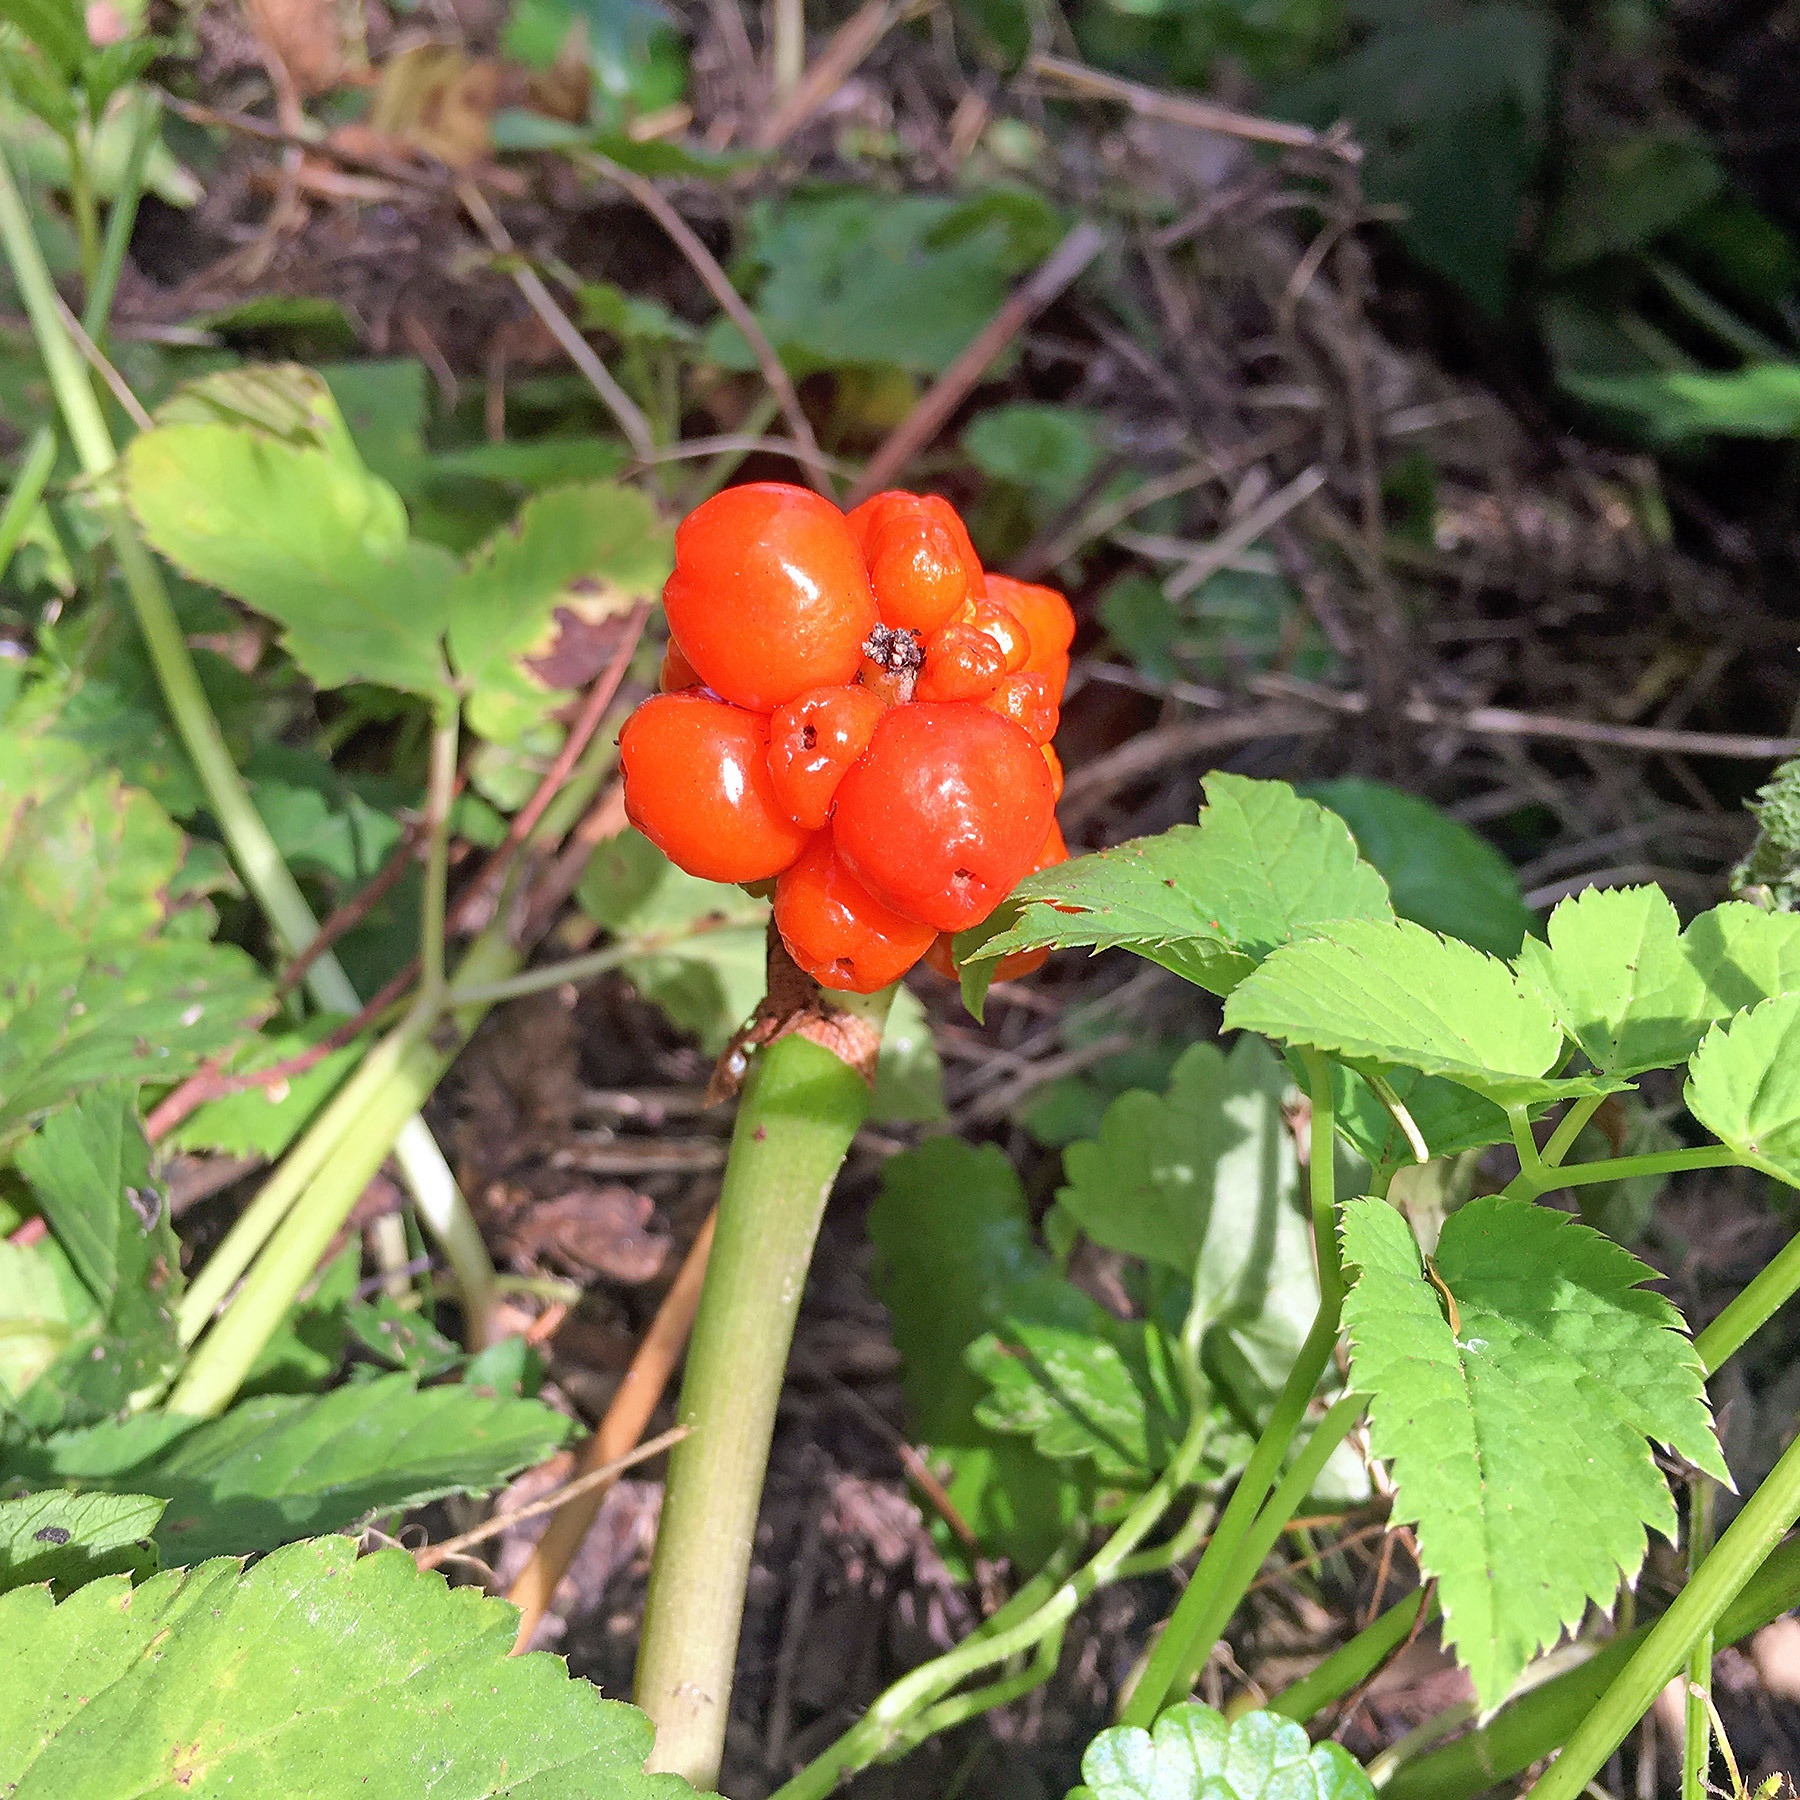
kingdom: Plantae
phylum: Tracheophyta
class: Liliopsida
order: Alismatales
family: Araceae
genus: Arum
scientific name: Arum maculatum
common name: Lords-and-ladies
